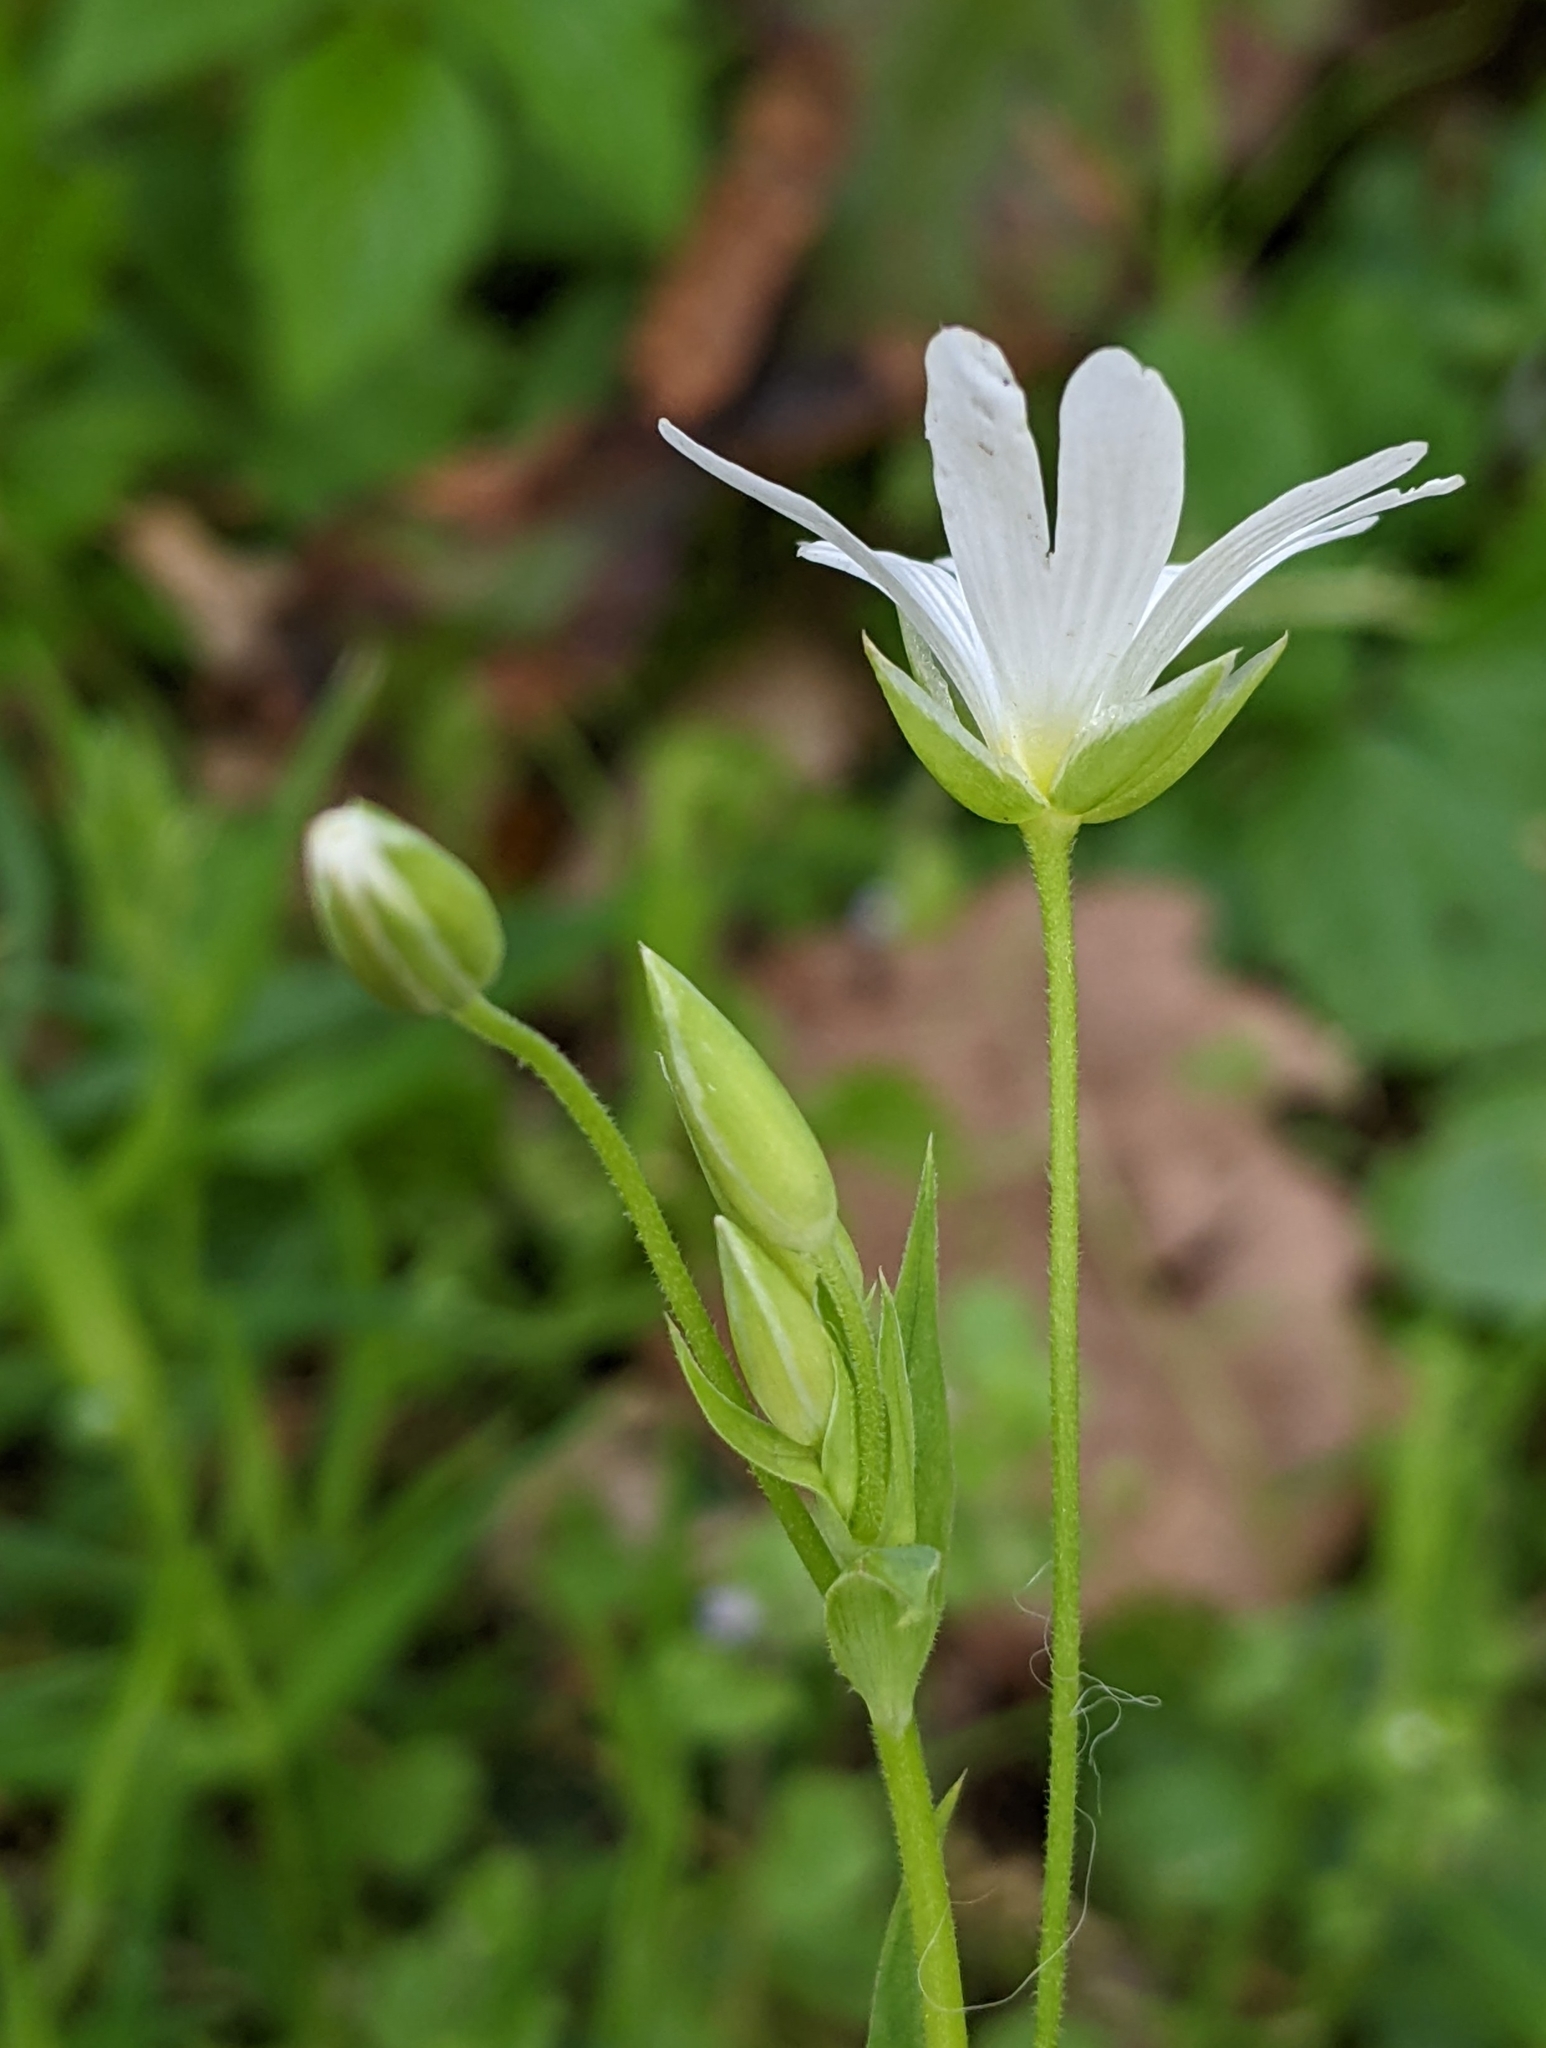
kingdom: Plantae
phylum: Tracheophyta
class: Magnoliopsida
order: Caryophyllales
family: Caryophyllaceae
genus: Rabelera
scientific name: Rabelera holostea
